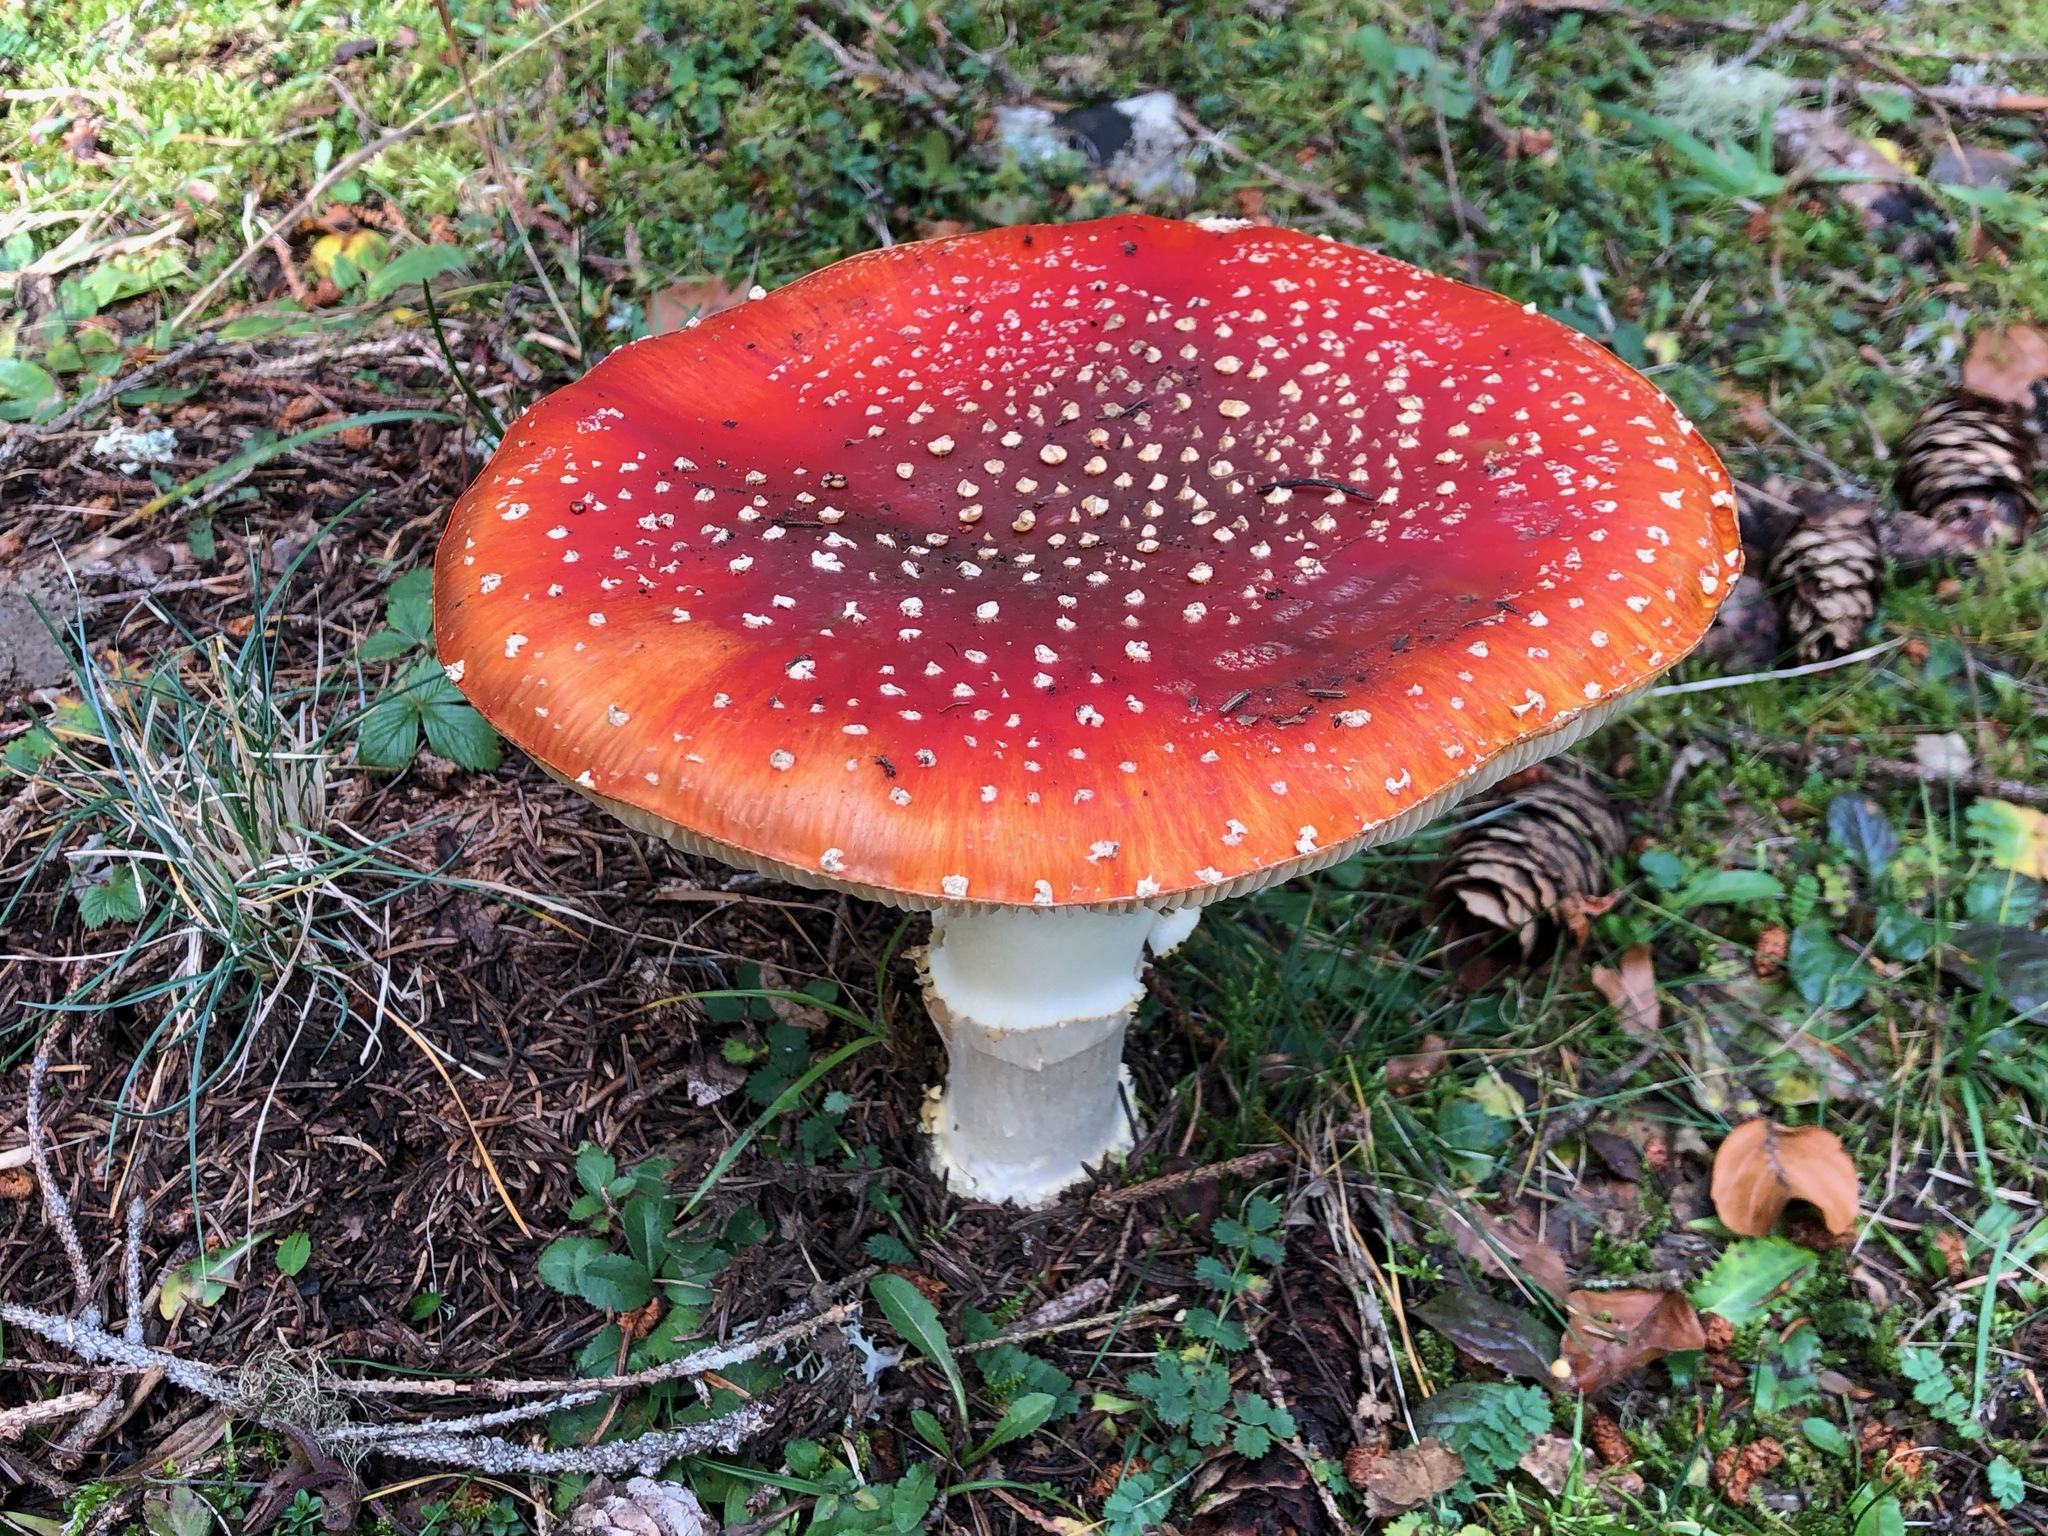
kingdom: Fungi
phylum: Basidiomycota
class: Agaricomycetes
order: Agaricales
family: Amanitaceae
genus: Amanita
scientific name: Amanita muscaria
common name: Fly agaric
